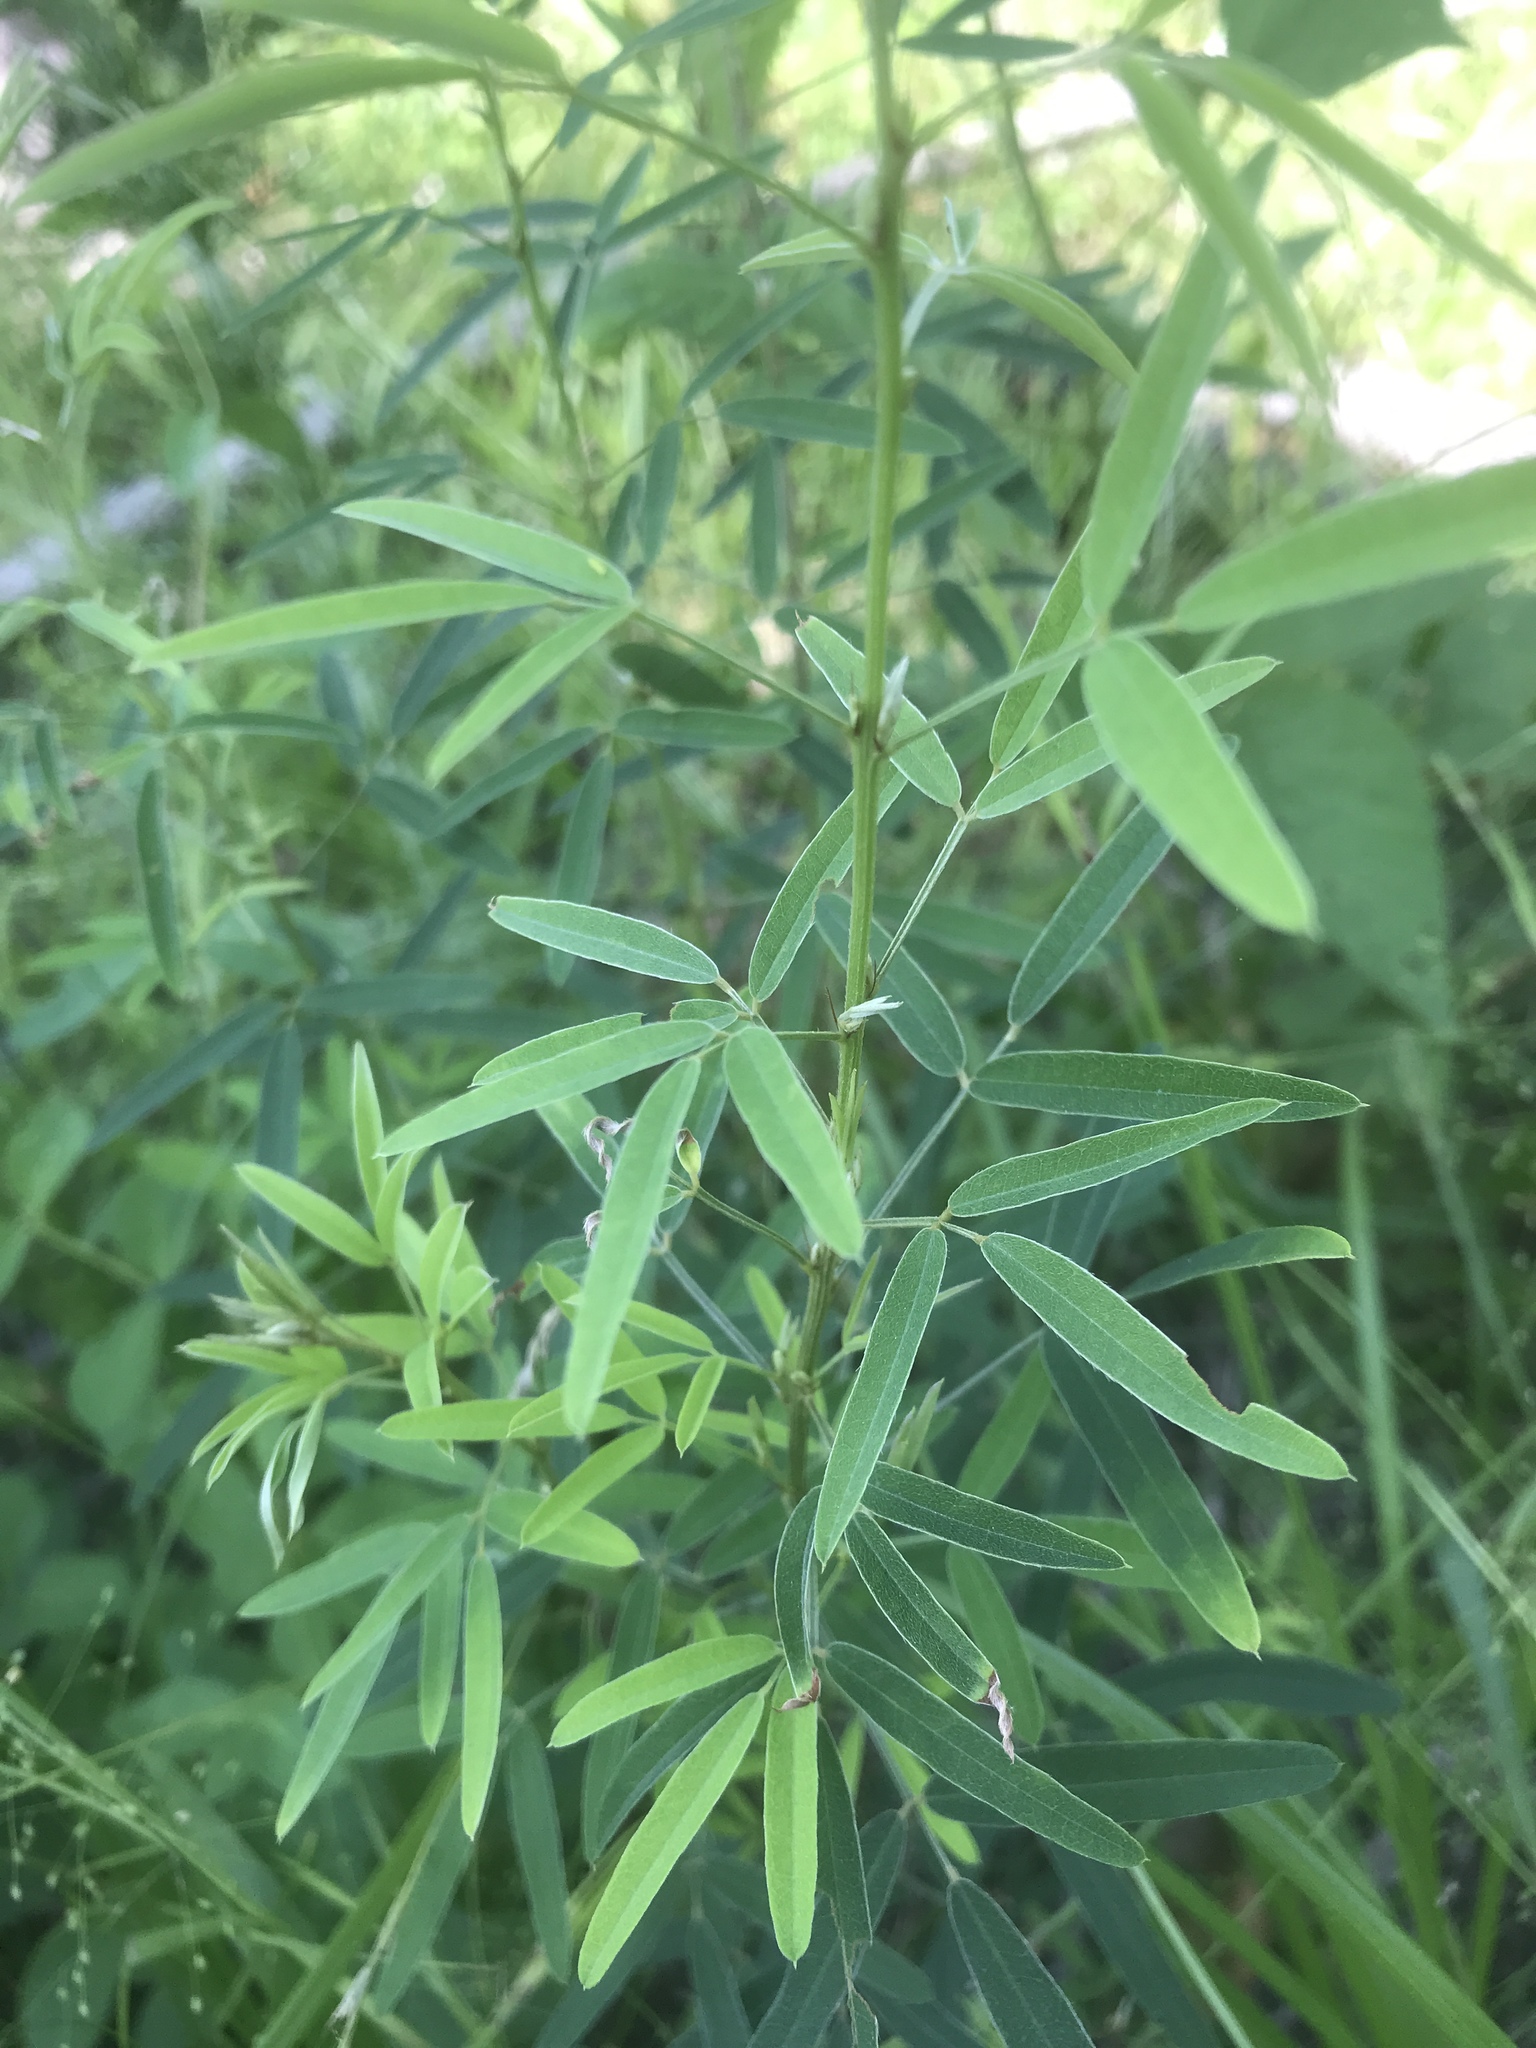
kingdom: Plantae
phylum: Tracheophyta
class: Magnoliopsida
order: Fabales
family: Fabaceae
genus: Lespedeza
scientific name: Lespedeza virginica
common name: Slender bush-clover
